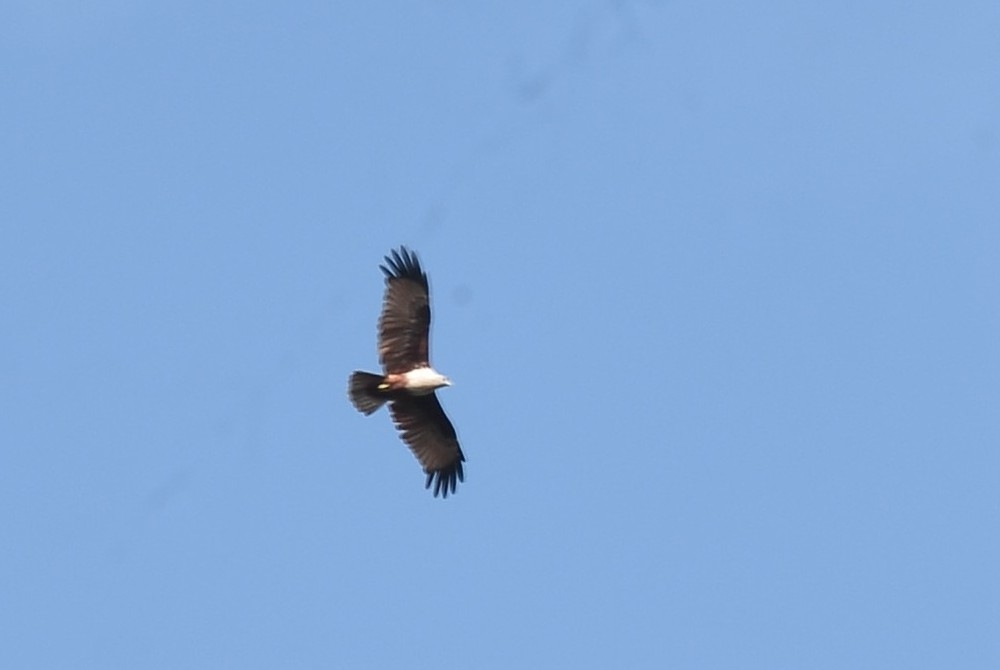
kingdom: Animalia
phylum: Chordata
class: Aves
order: Accipitriformes
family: Accipitridae
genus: Haliastur
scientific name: Haliastur indus
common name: Brahminy kite
